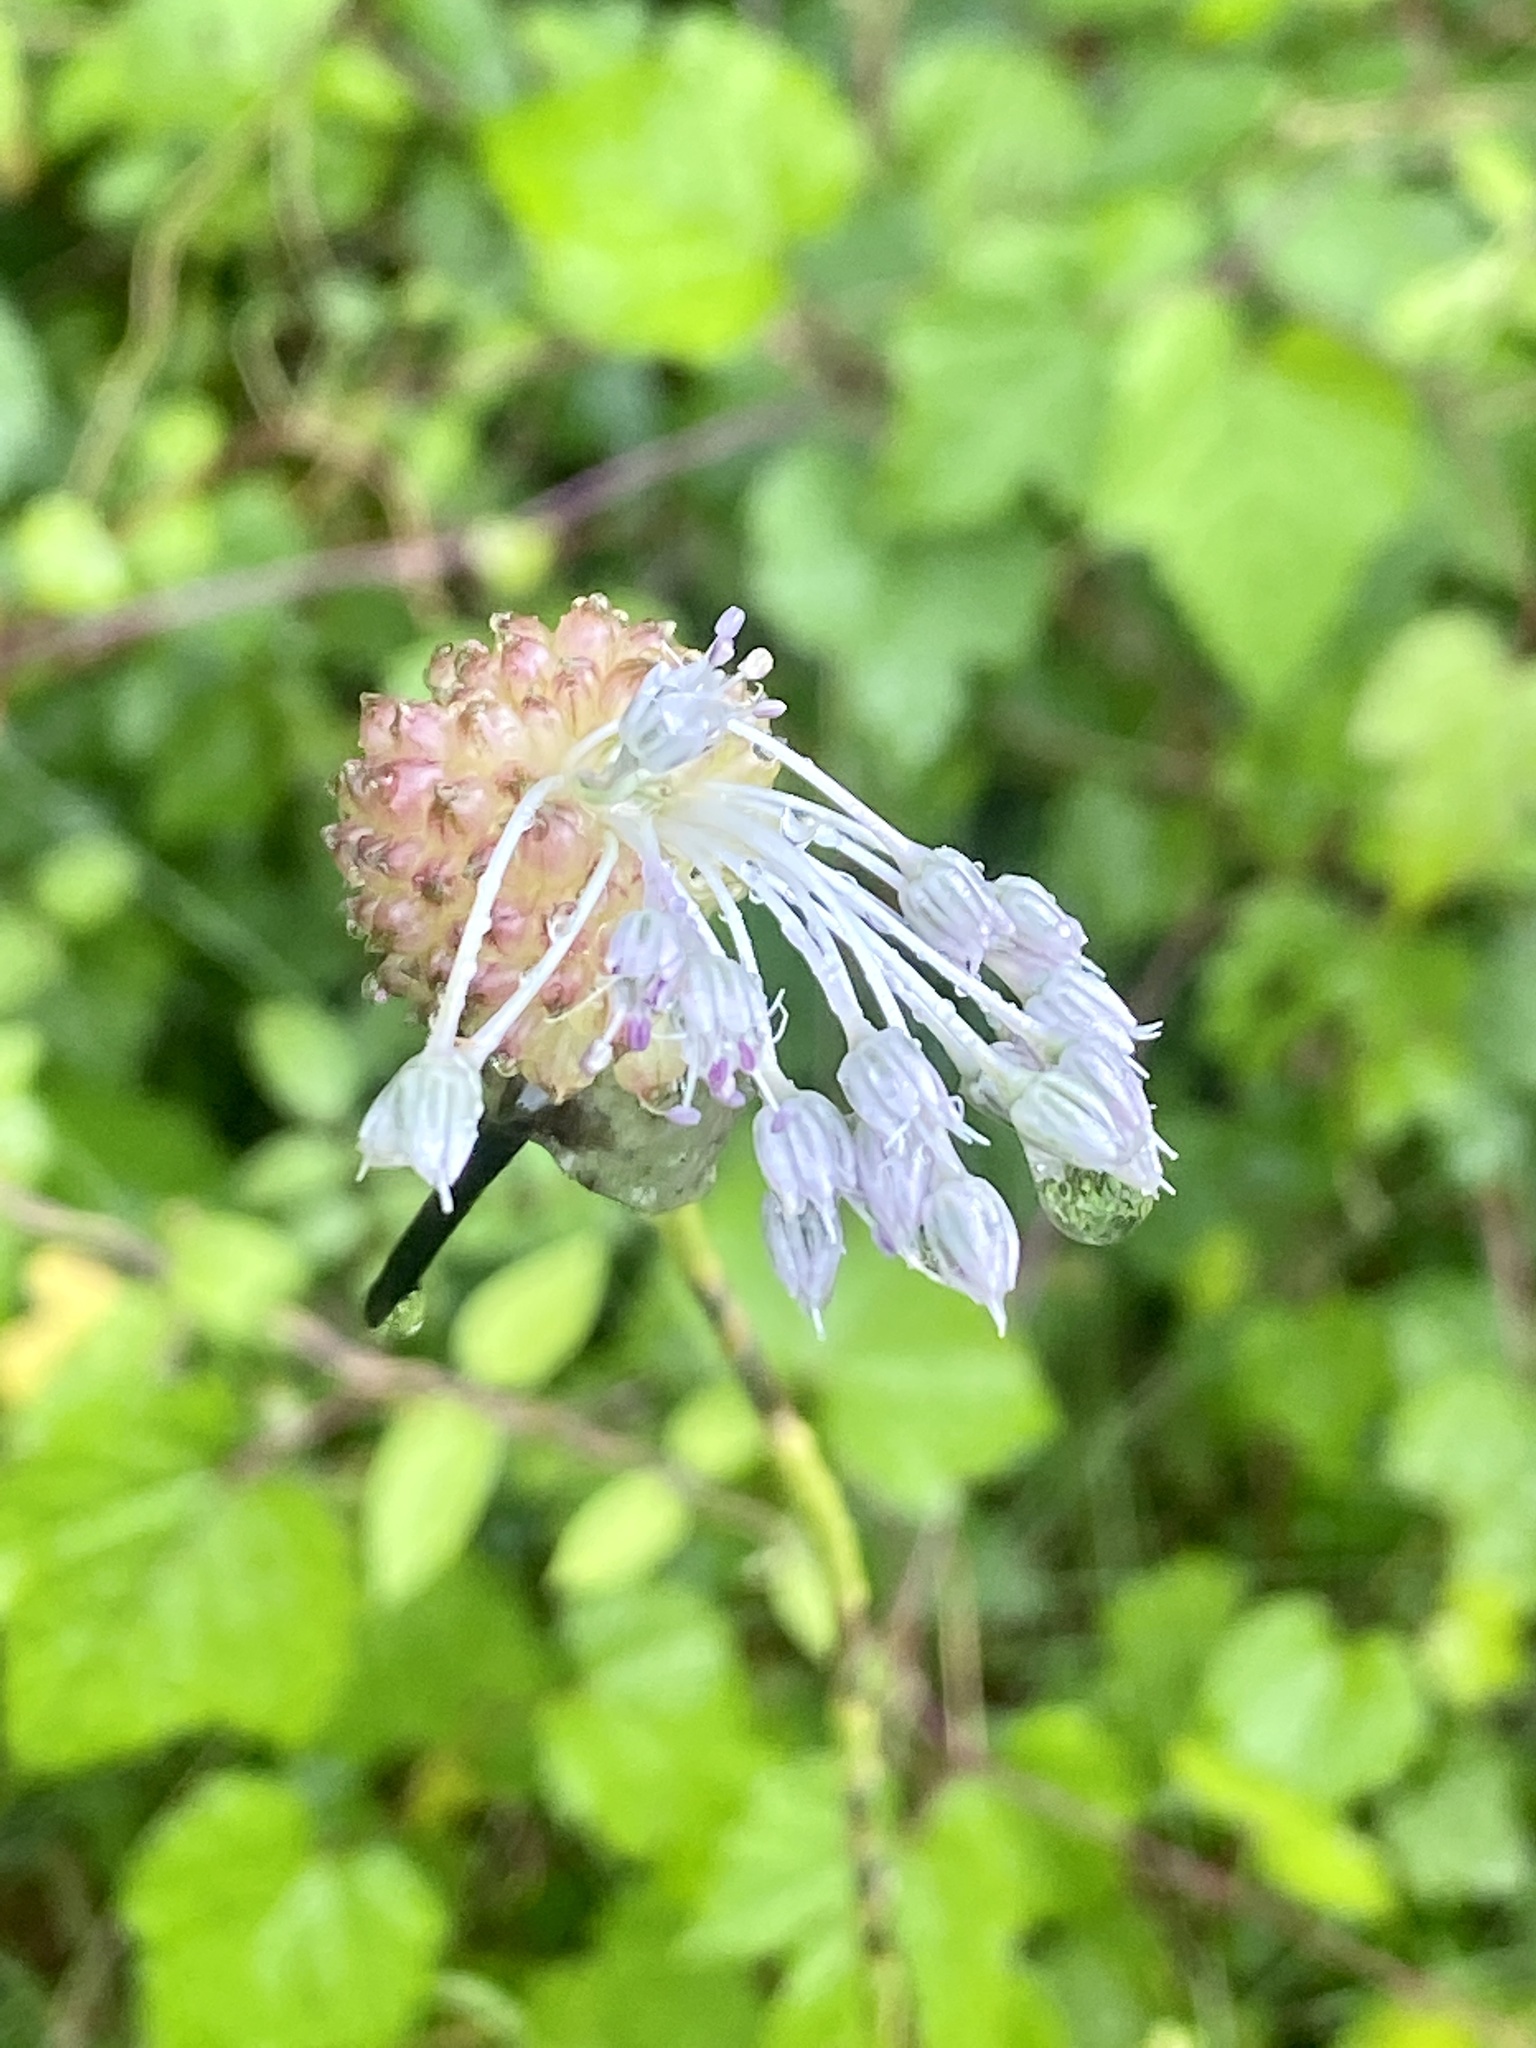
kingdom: Plantae
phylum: Tracheophyta
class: Liliopsida
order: Asparagales
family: Amaryllidaceae
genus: Allium
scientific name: Allium vineale
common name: Crow garlic
